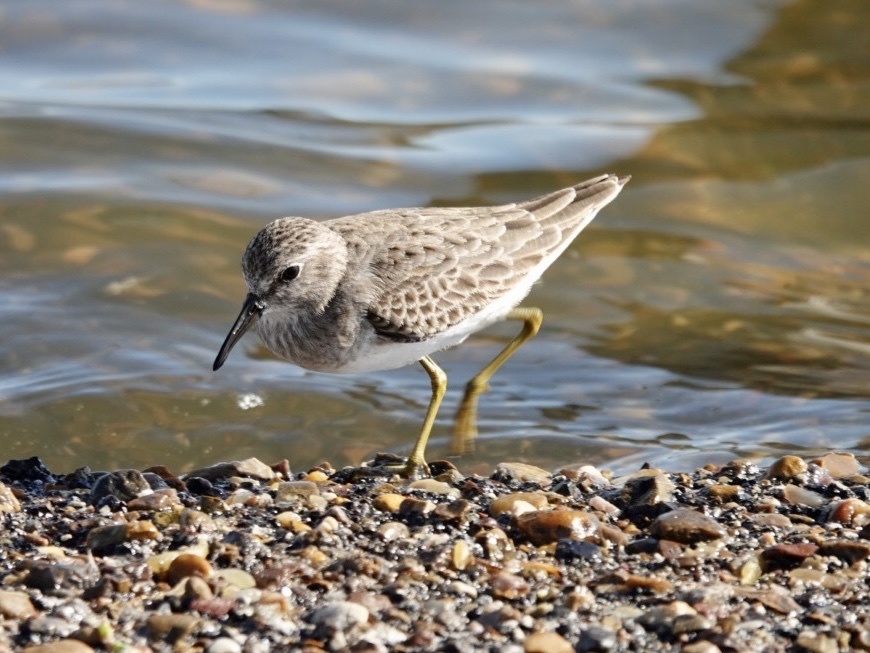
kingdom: Animalia
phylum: Chordata
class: Aves
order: Charadriiformes
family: Scolopacidae
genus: Calidris
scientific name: Calidris minutilla
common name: Least sandpiper
